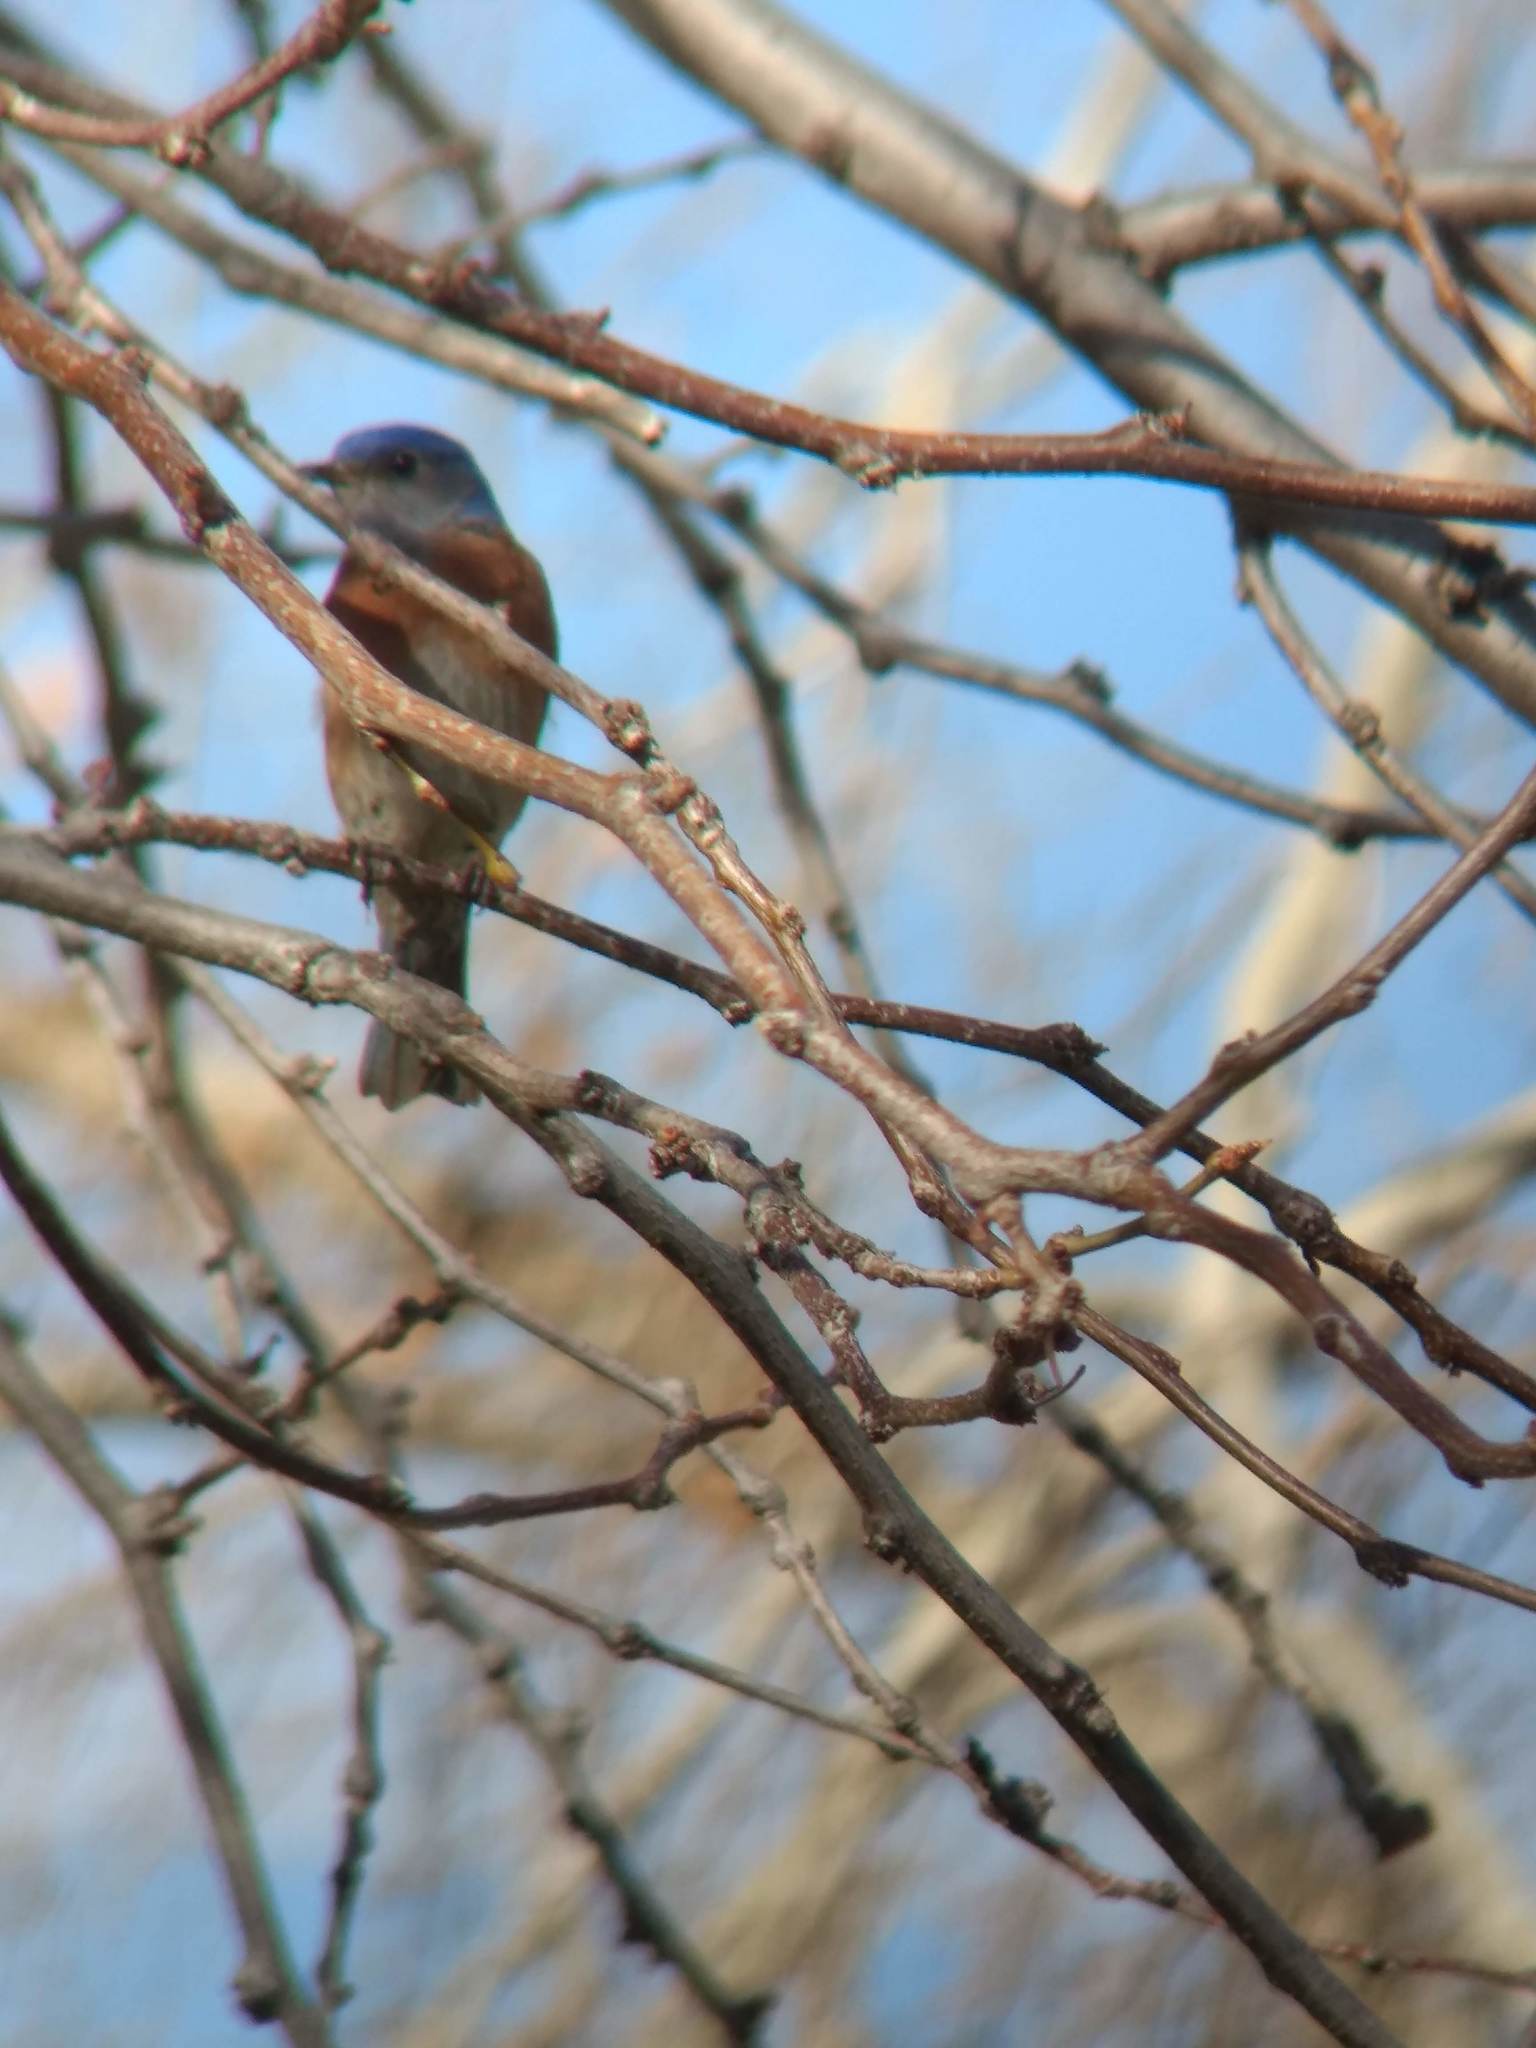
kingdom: Animalia
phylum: Chordata
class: Aves
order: Passeriformes
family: Turdidae
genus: Sialia
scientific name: Sialia mexicana
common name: Western bluebird
